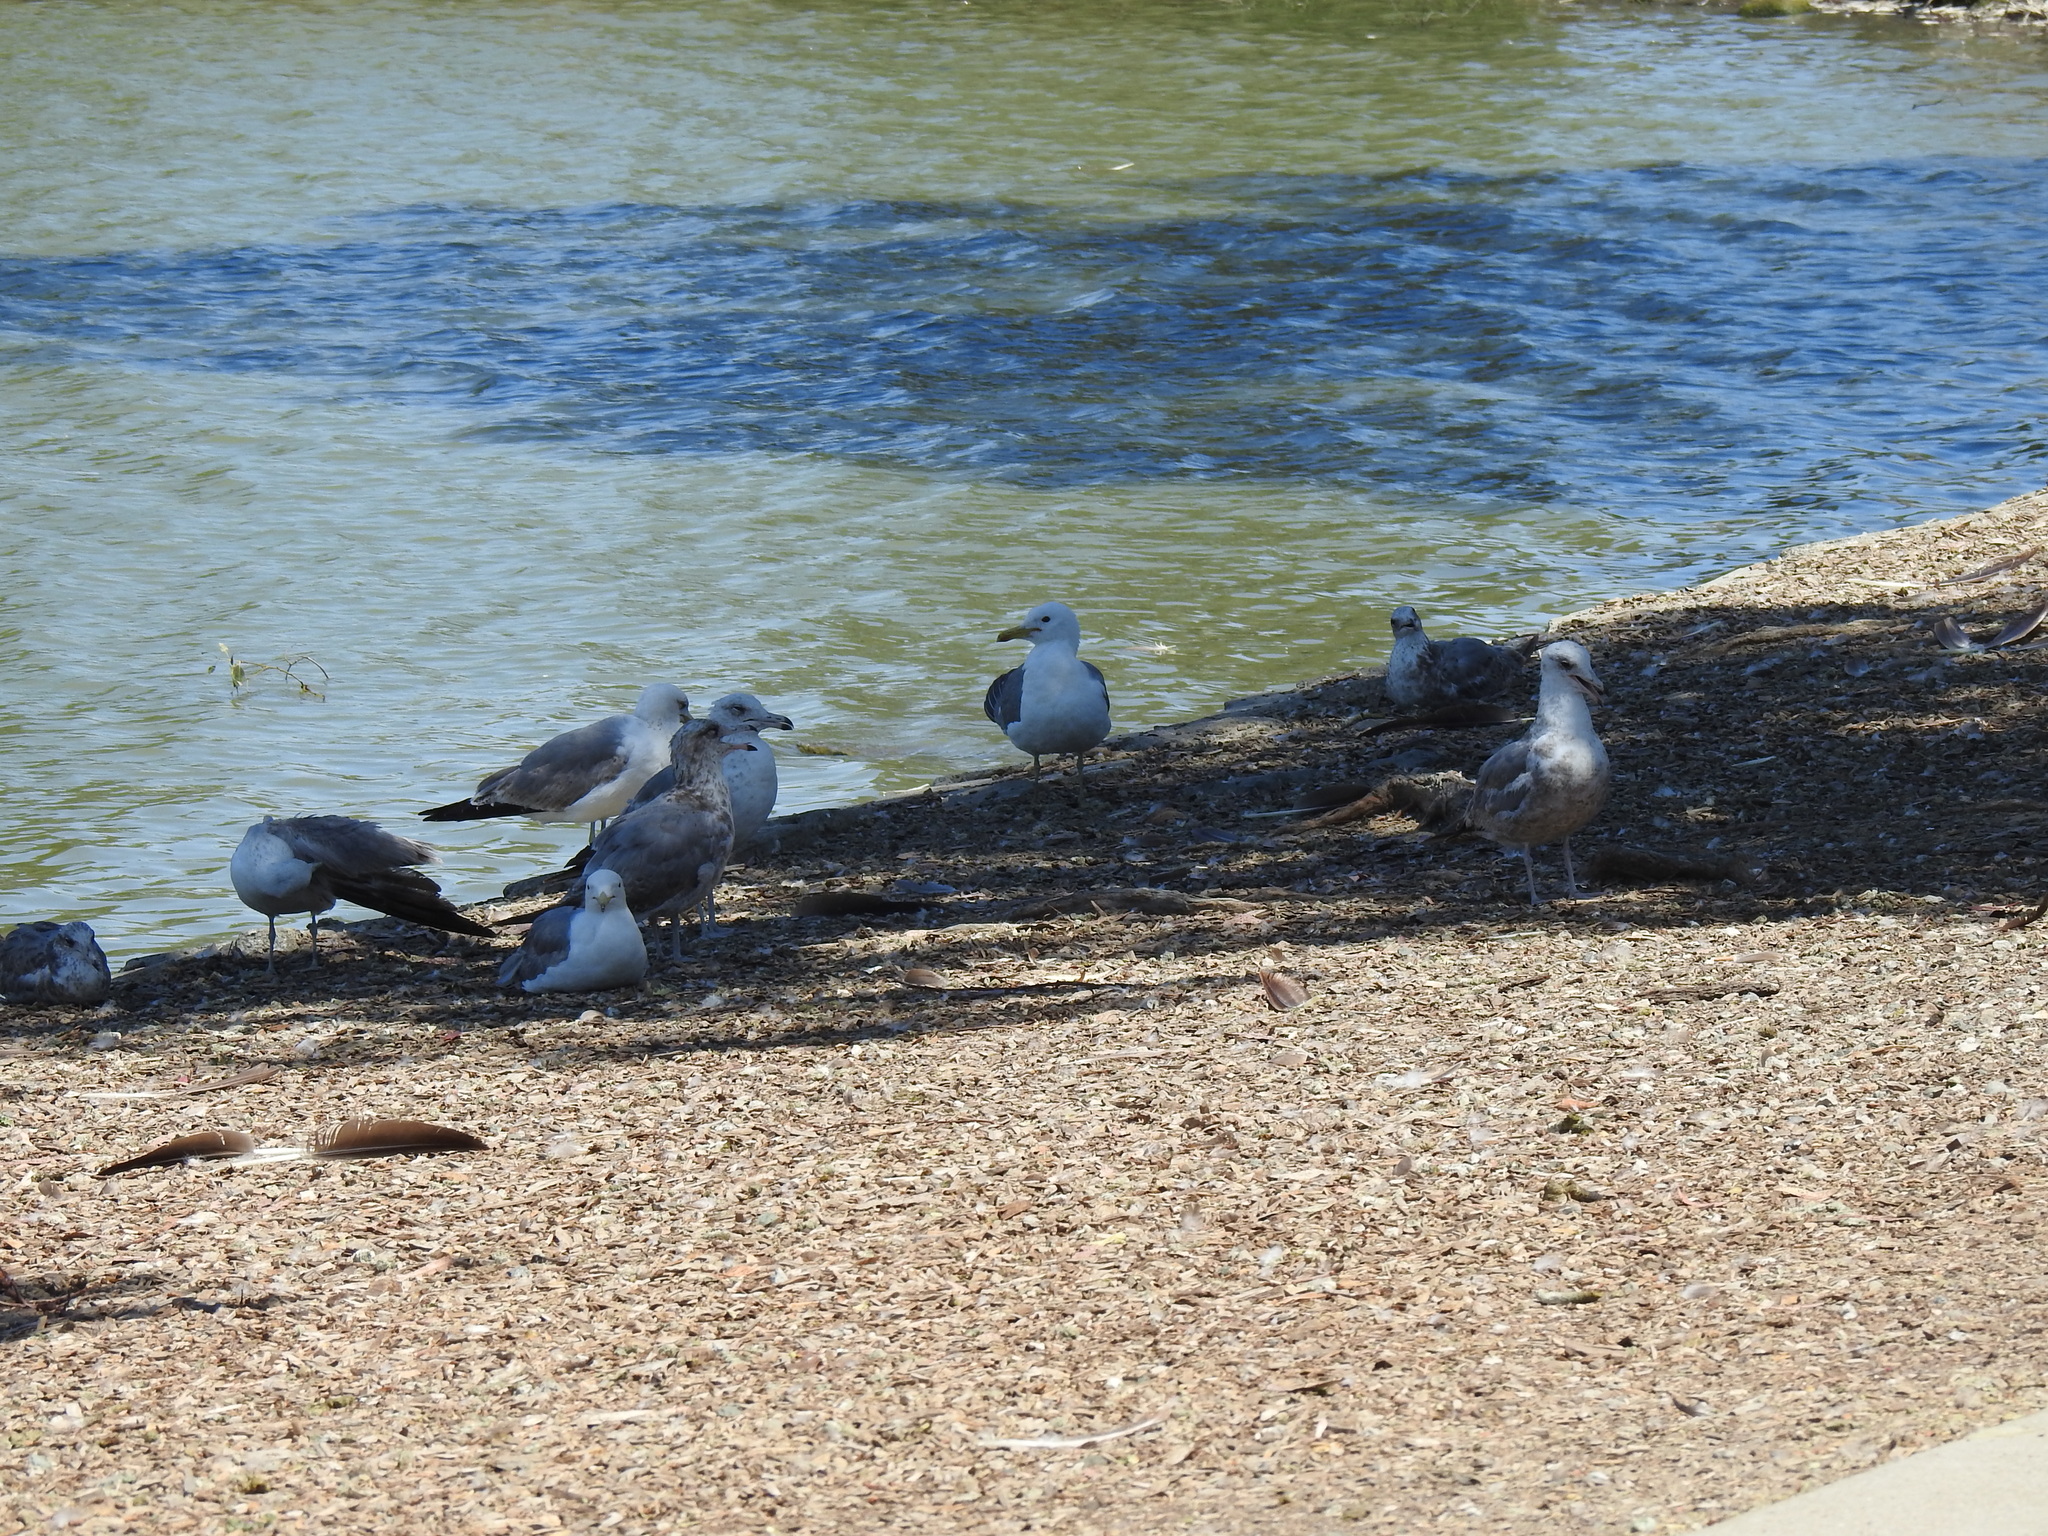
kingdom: Animalia
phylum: Chordata
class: Aves
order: Charadriiformes
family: Laridae
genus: Larus
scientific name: Larus californicus
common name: California gull
